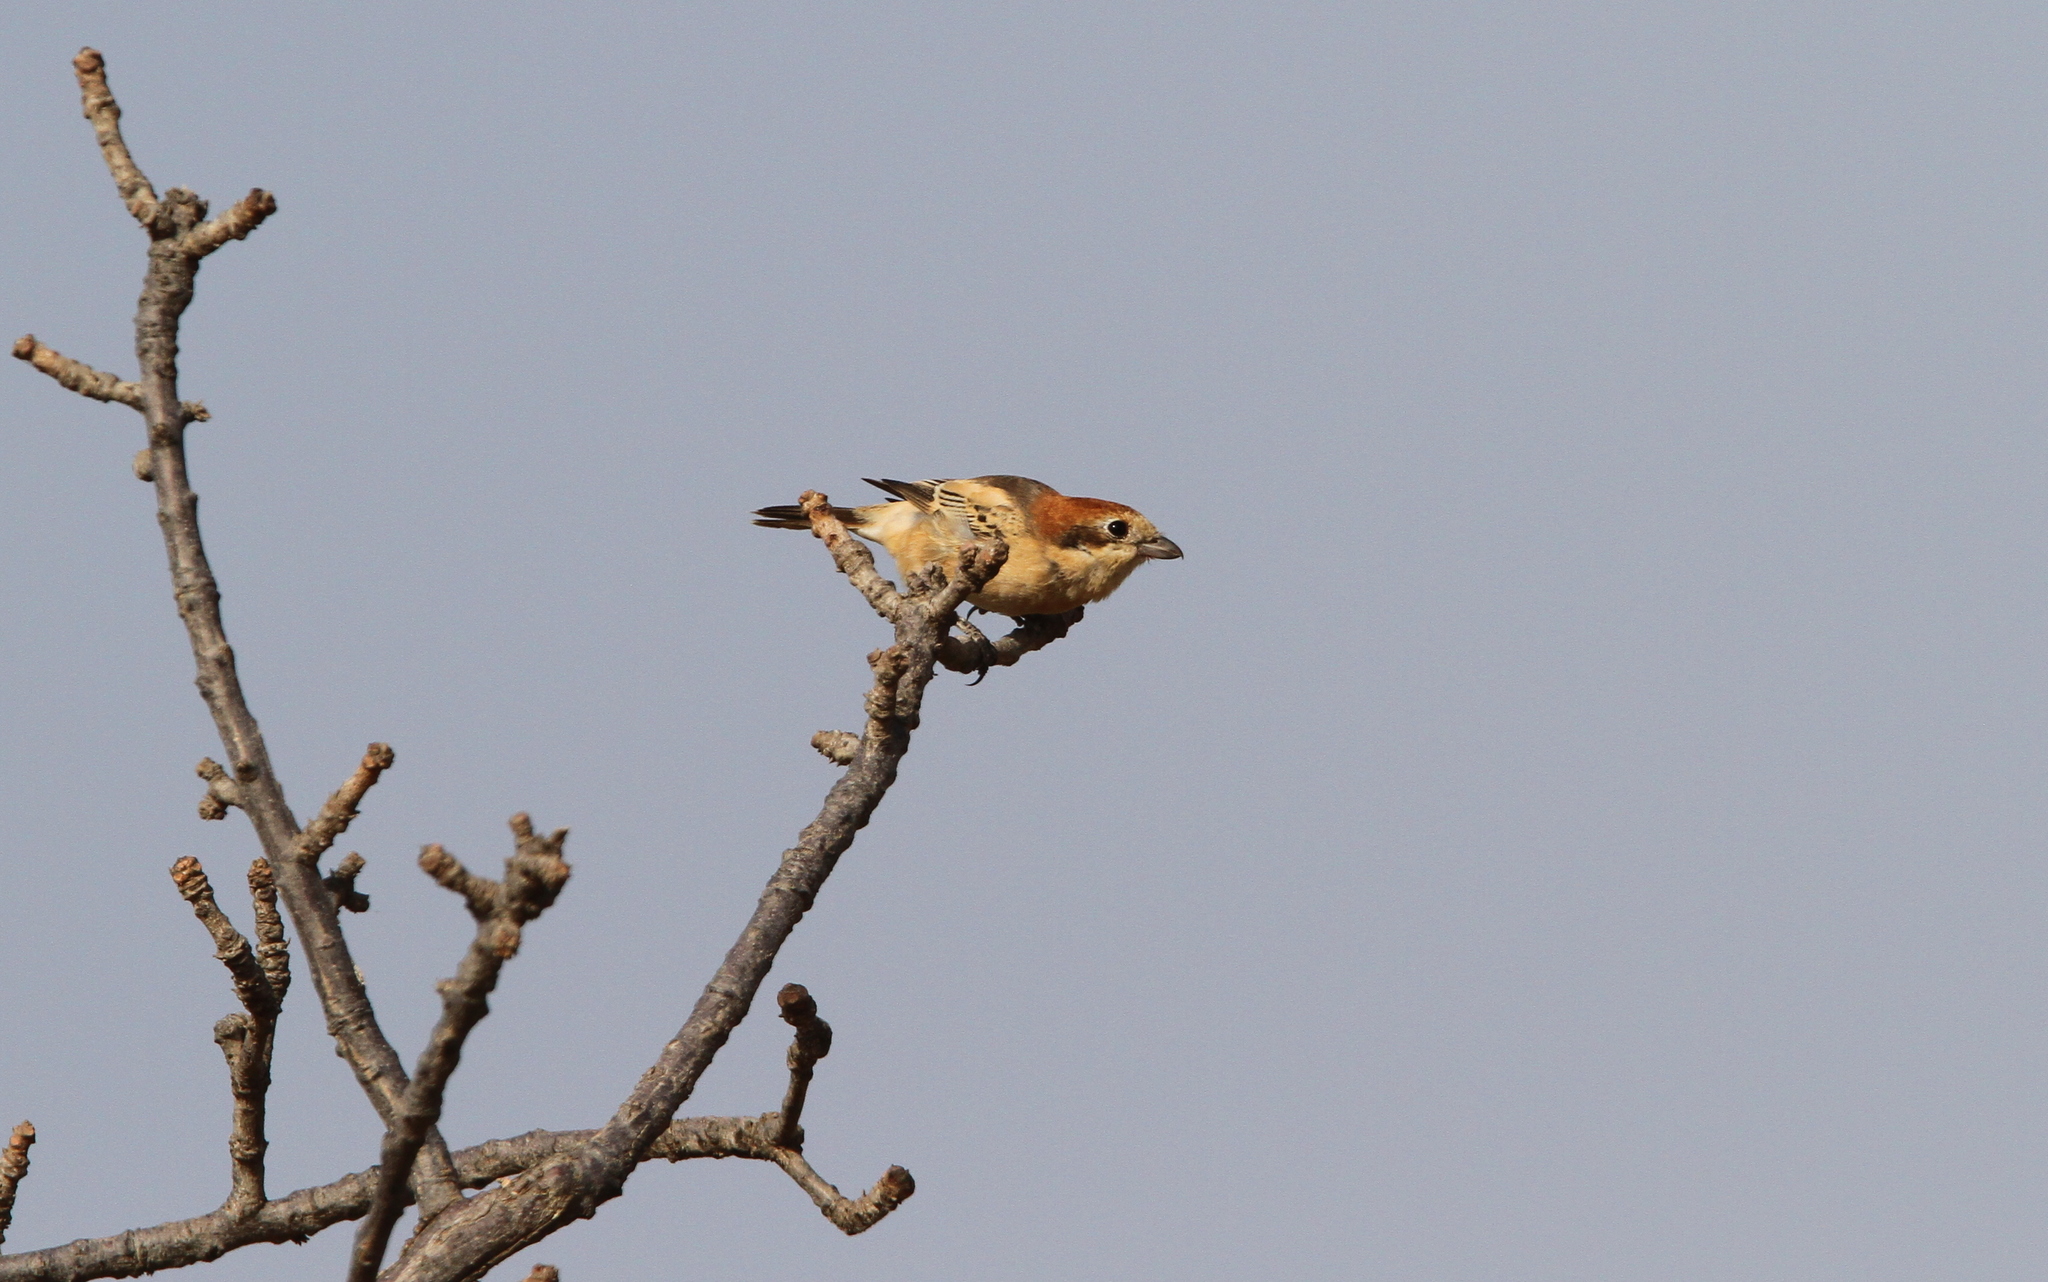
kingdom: Animalia
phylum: Chordata
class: Aves
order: Passeriformes
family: Laniidae
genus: Lanius
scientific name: Lanius senator
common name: Woodchat shrike
